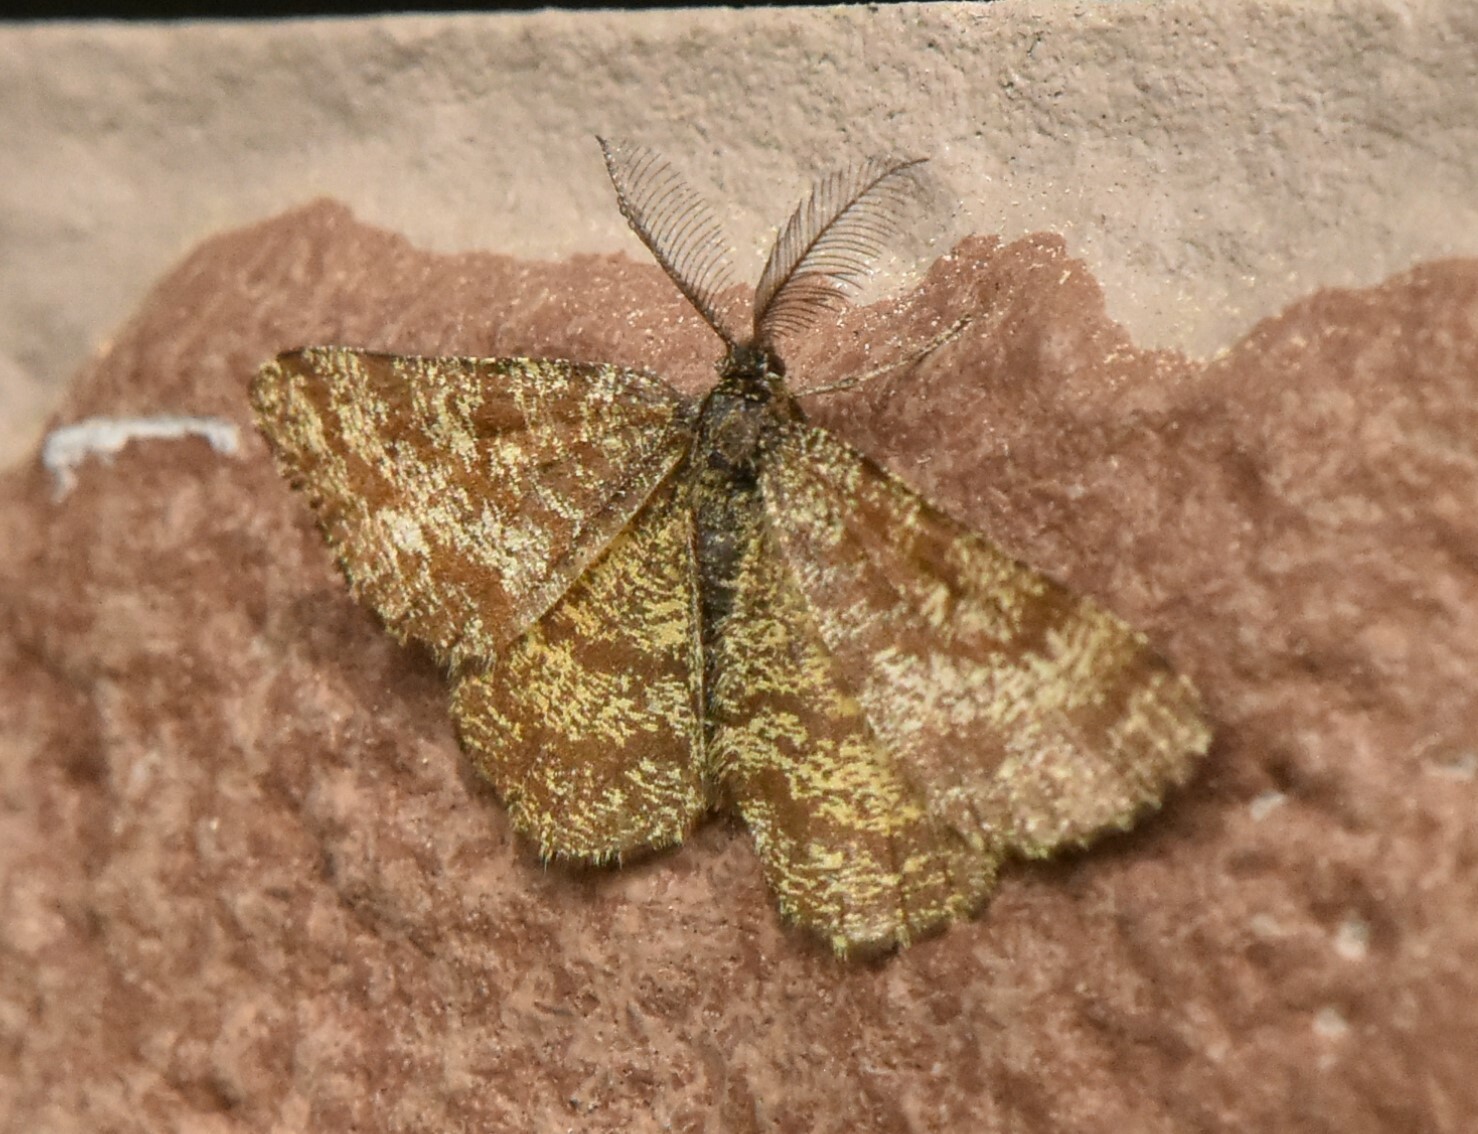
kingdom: Animalia
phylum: Arthropoda
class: Insecta
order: Lepidoptera
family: Geometridae
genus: Ematurga
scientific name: Ematurga atomaria
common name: Common heath
